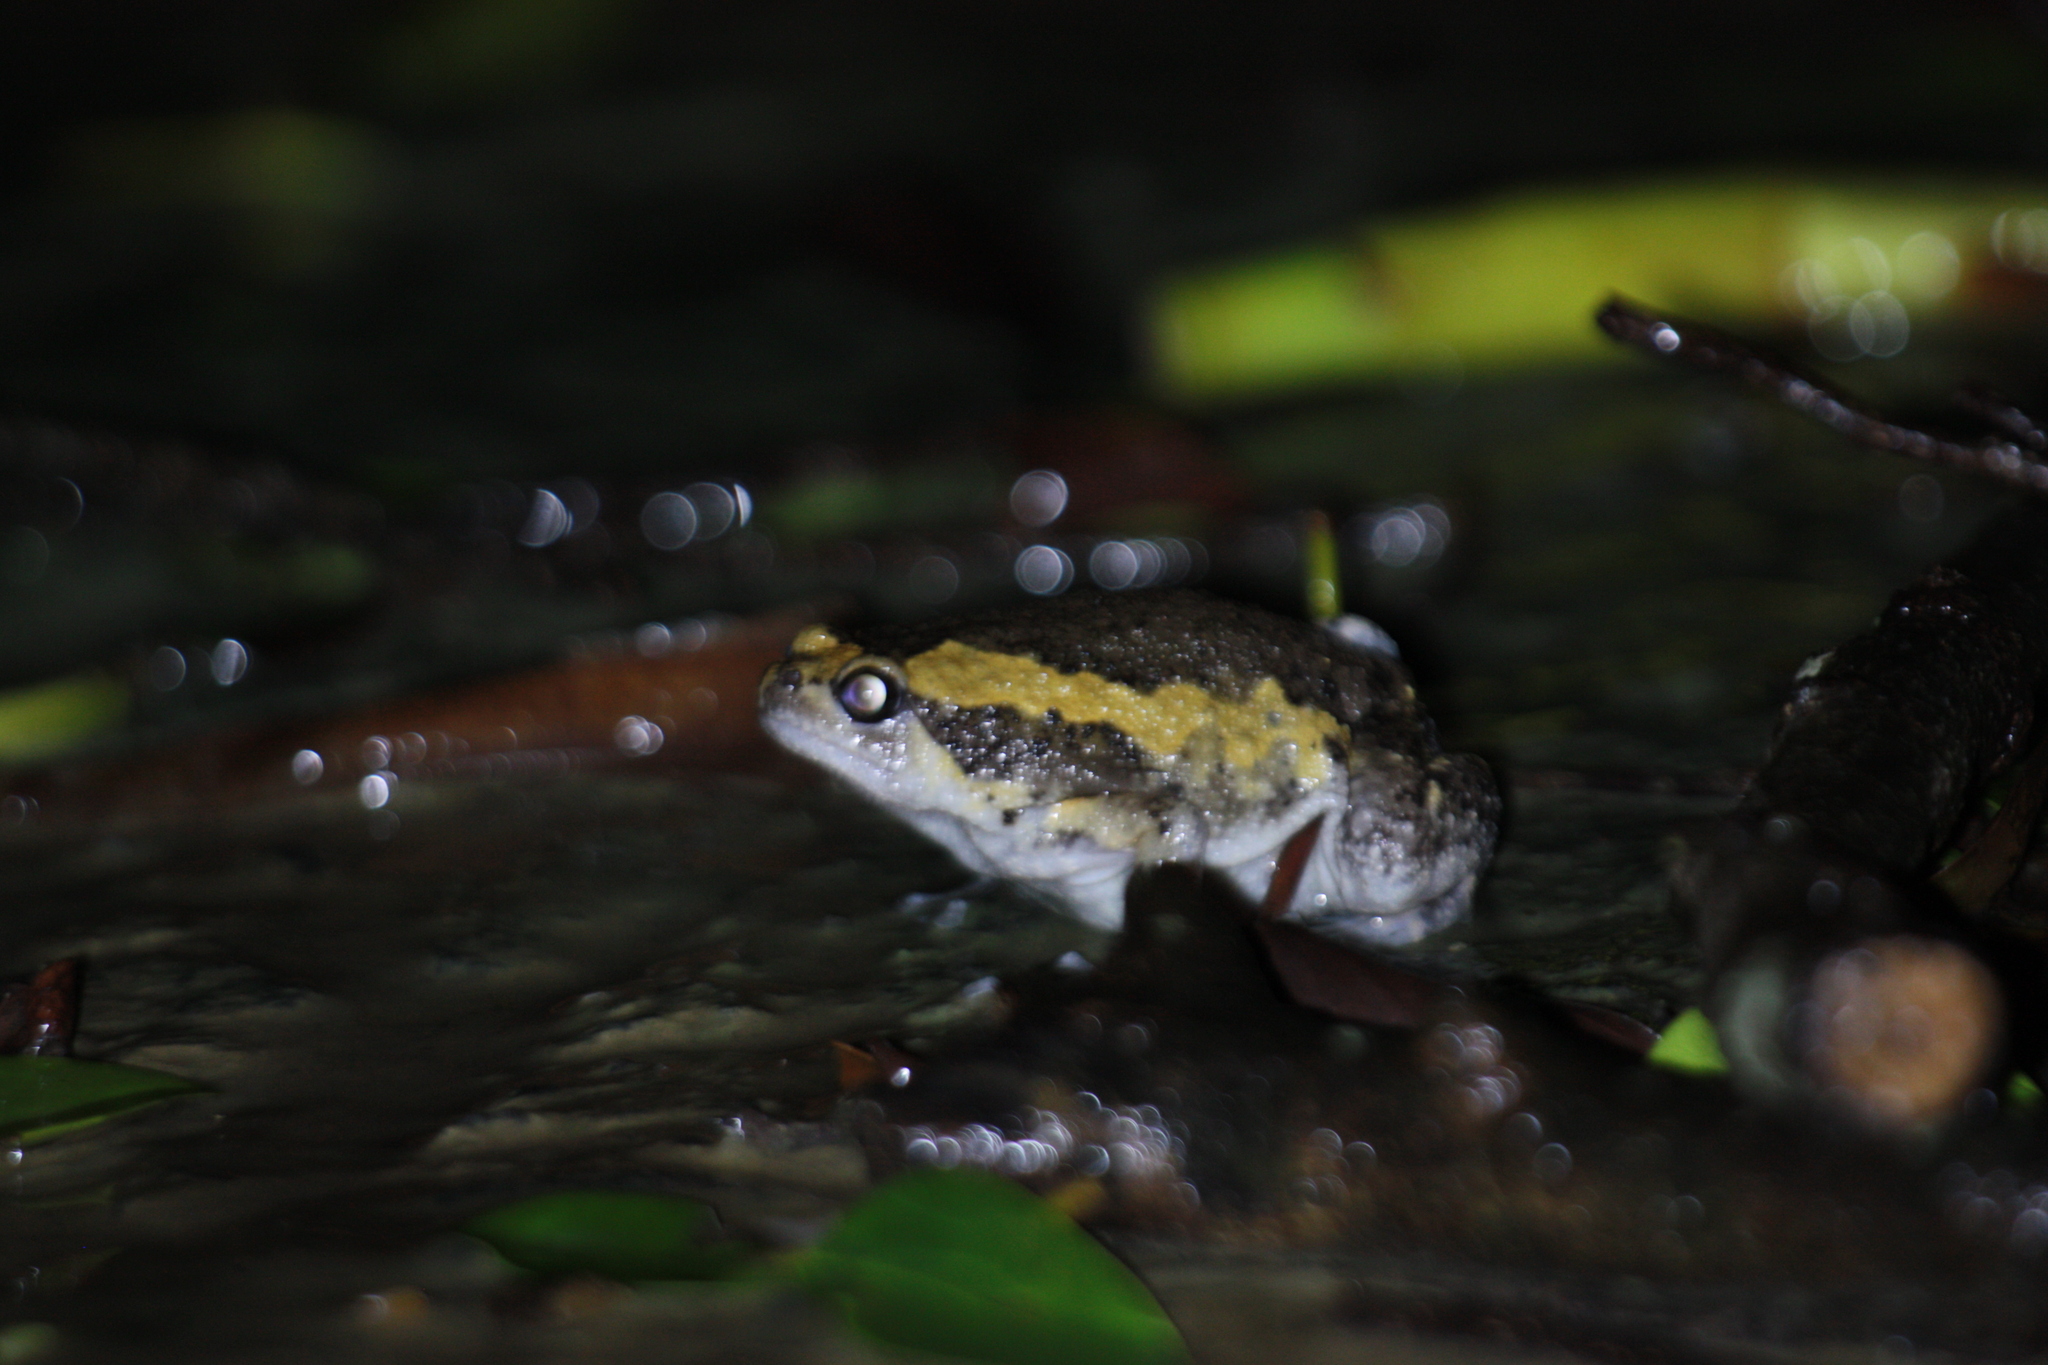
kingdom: Animalia
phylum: Chordata
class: Amphibia
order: Anura
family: Microhylidae
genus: Kaloula
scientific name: Kaloula pulchra
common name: Common,banded bullfrog
